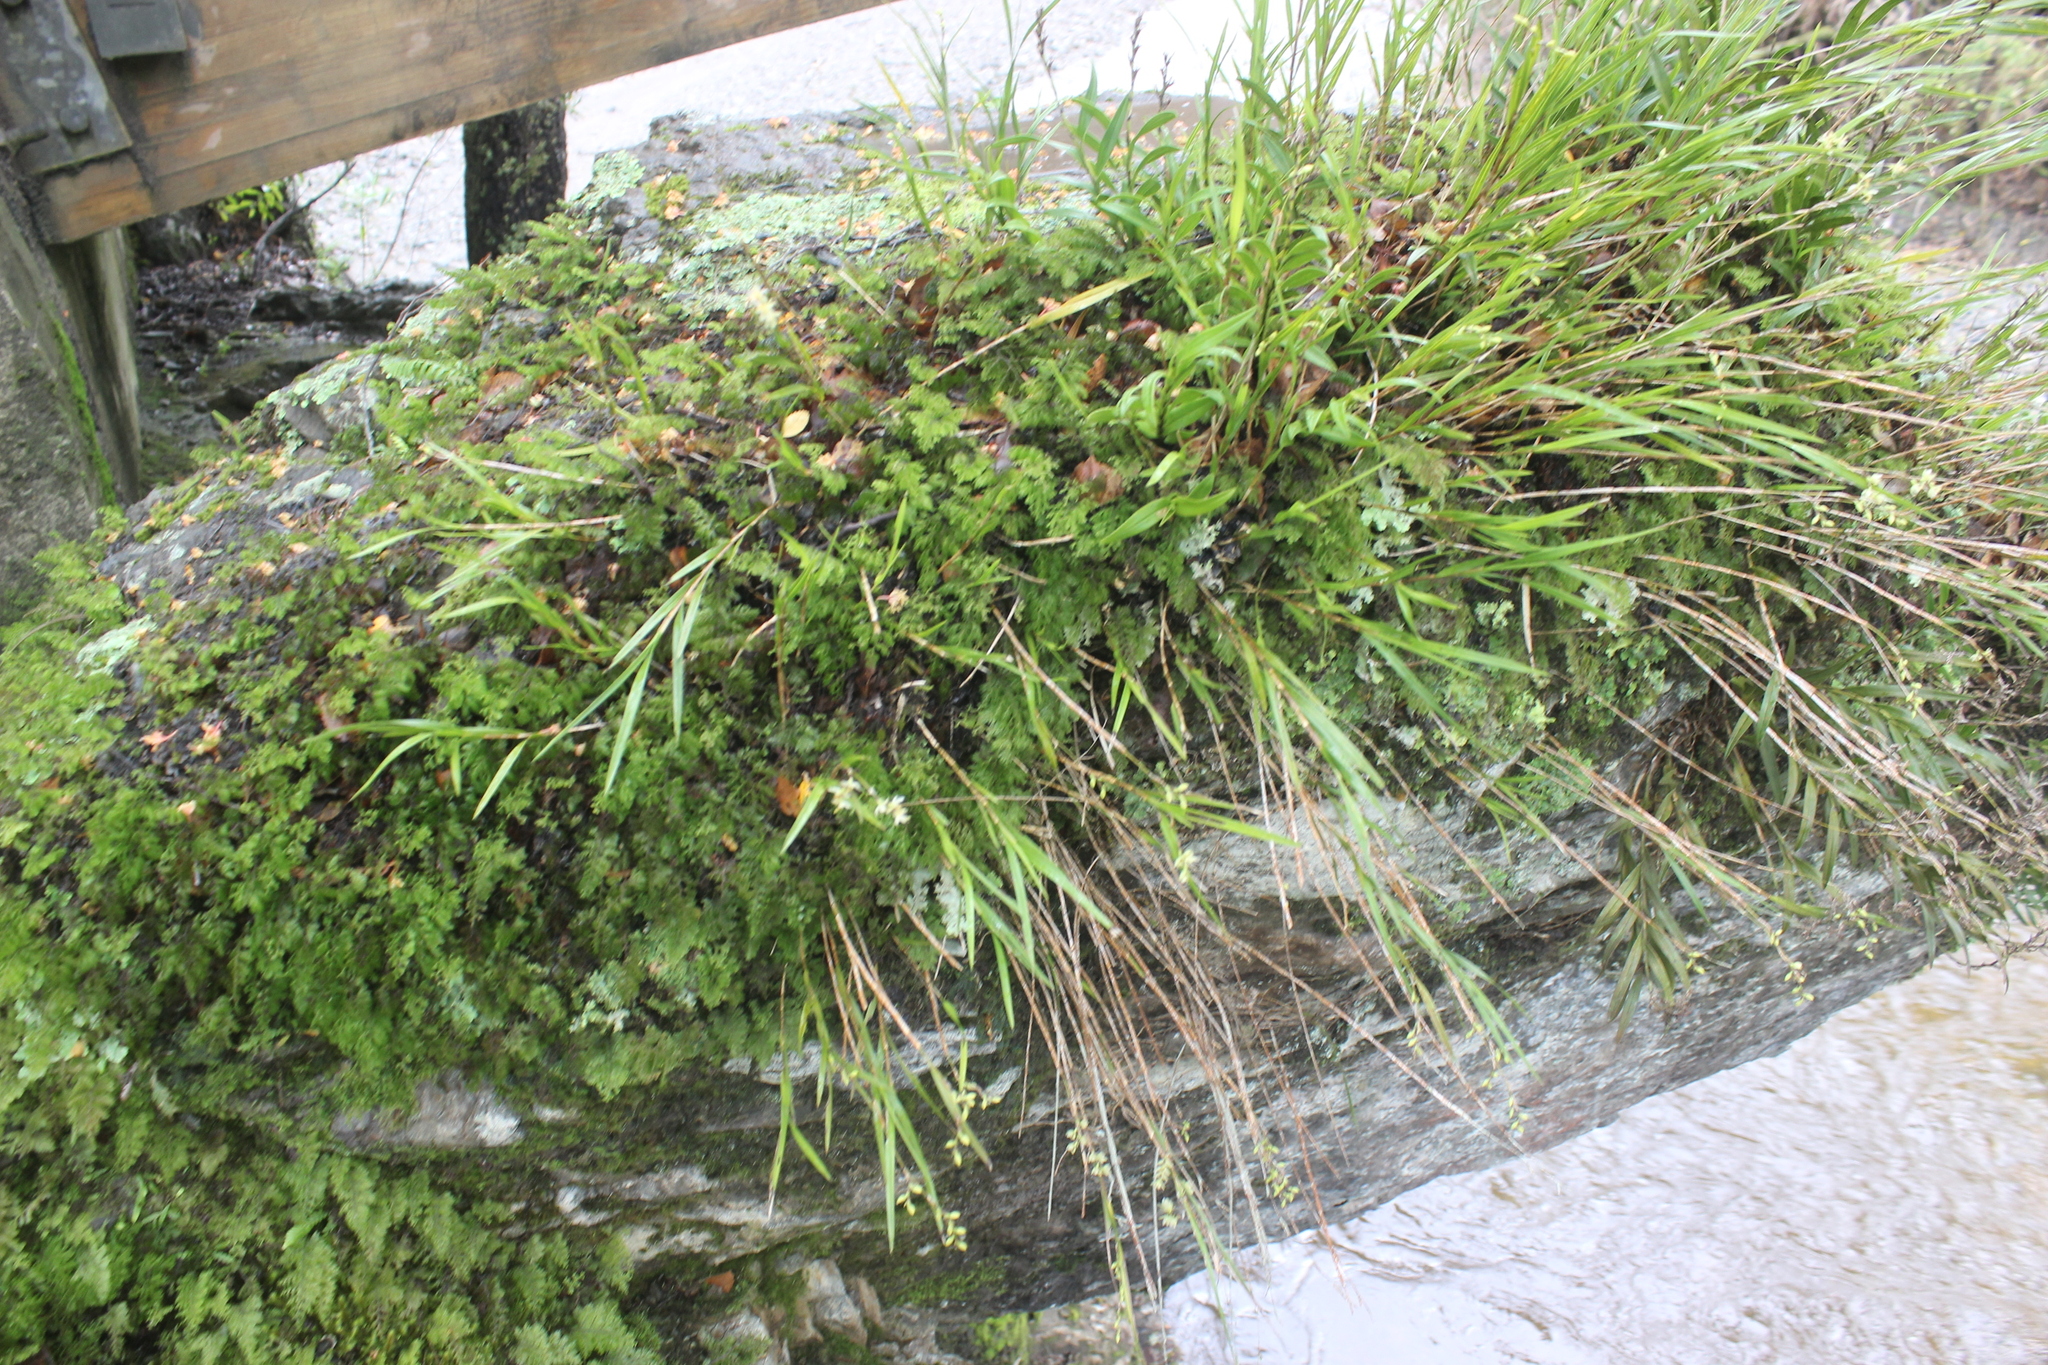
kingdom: Plantae
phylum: Tracheophyta
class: Liliopsida
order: Asparagales
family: Orchidaceae
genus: Earina
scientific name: Earina mucronata
